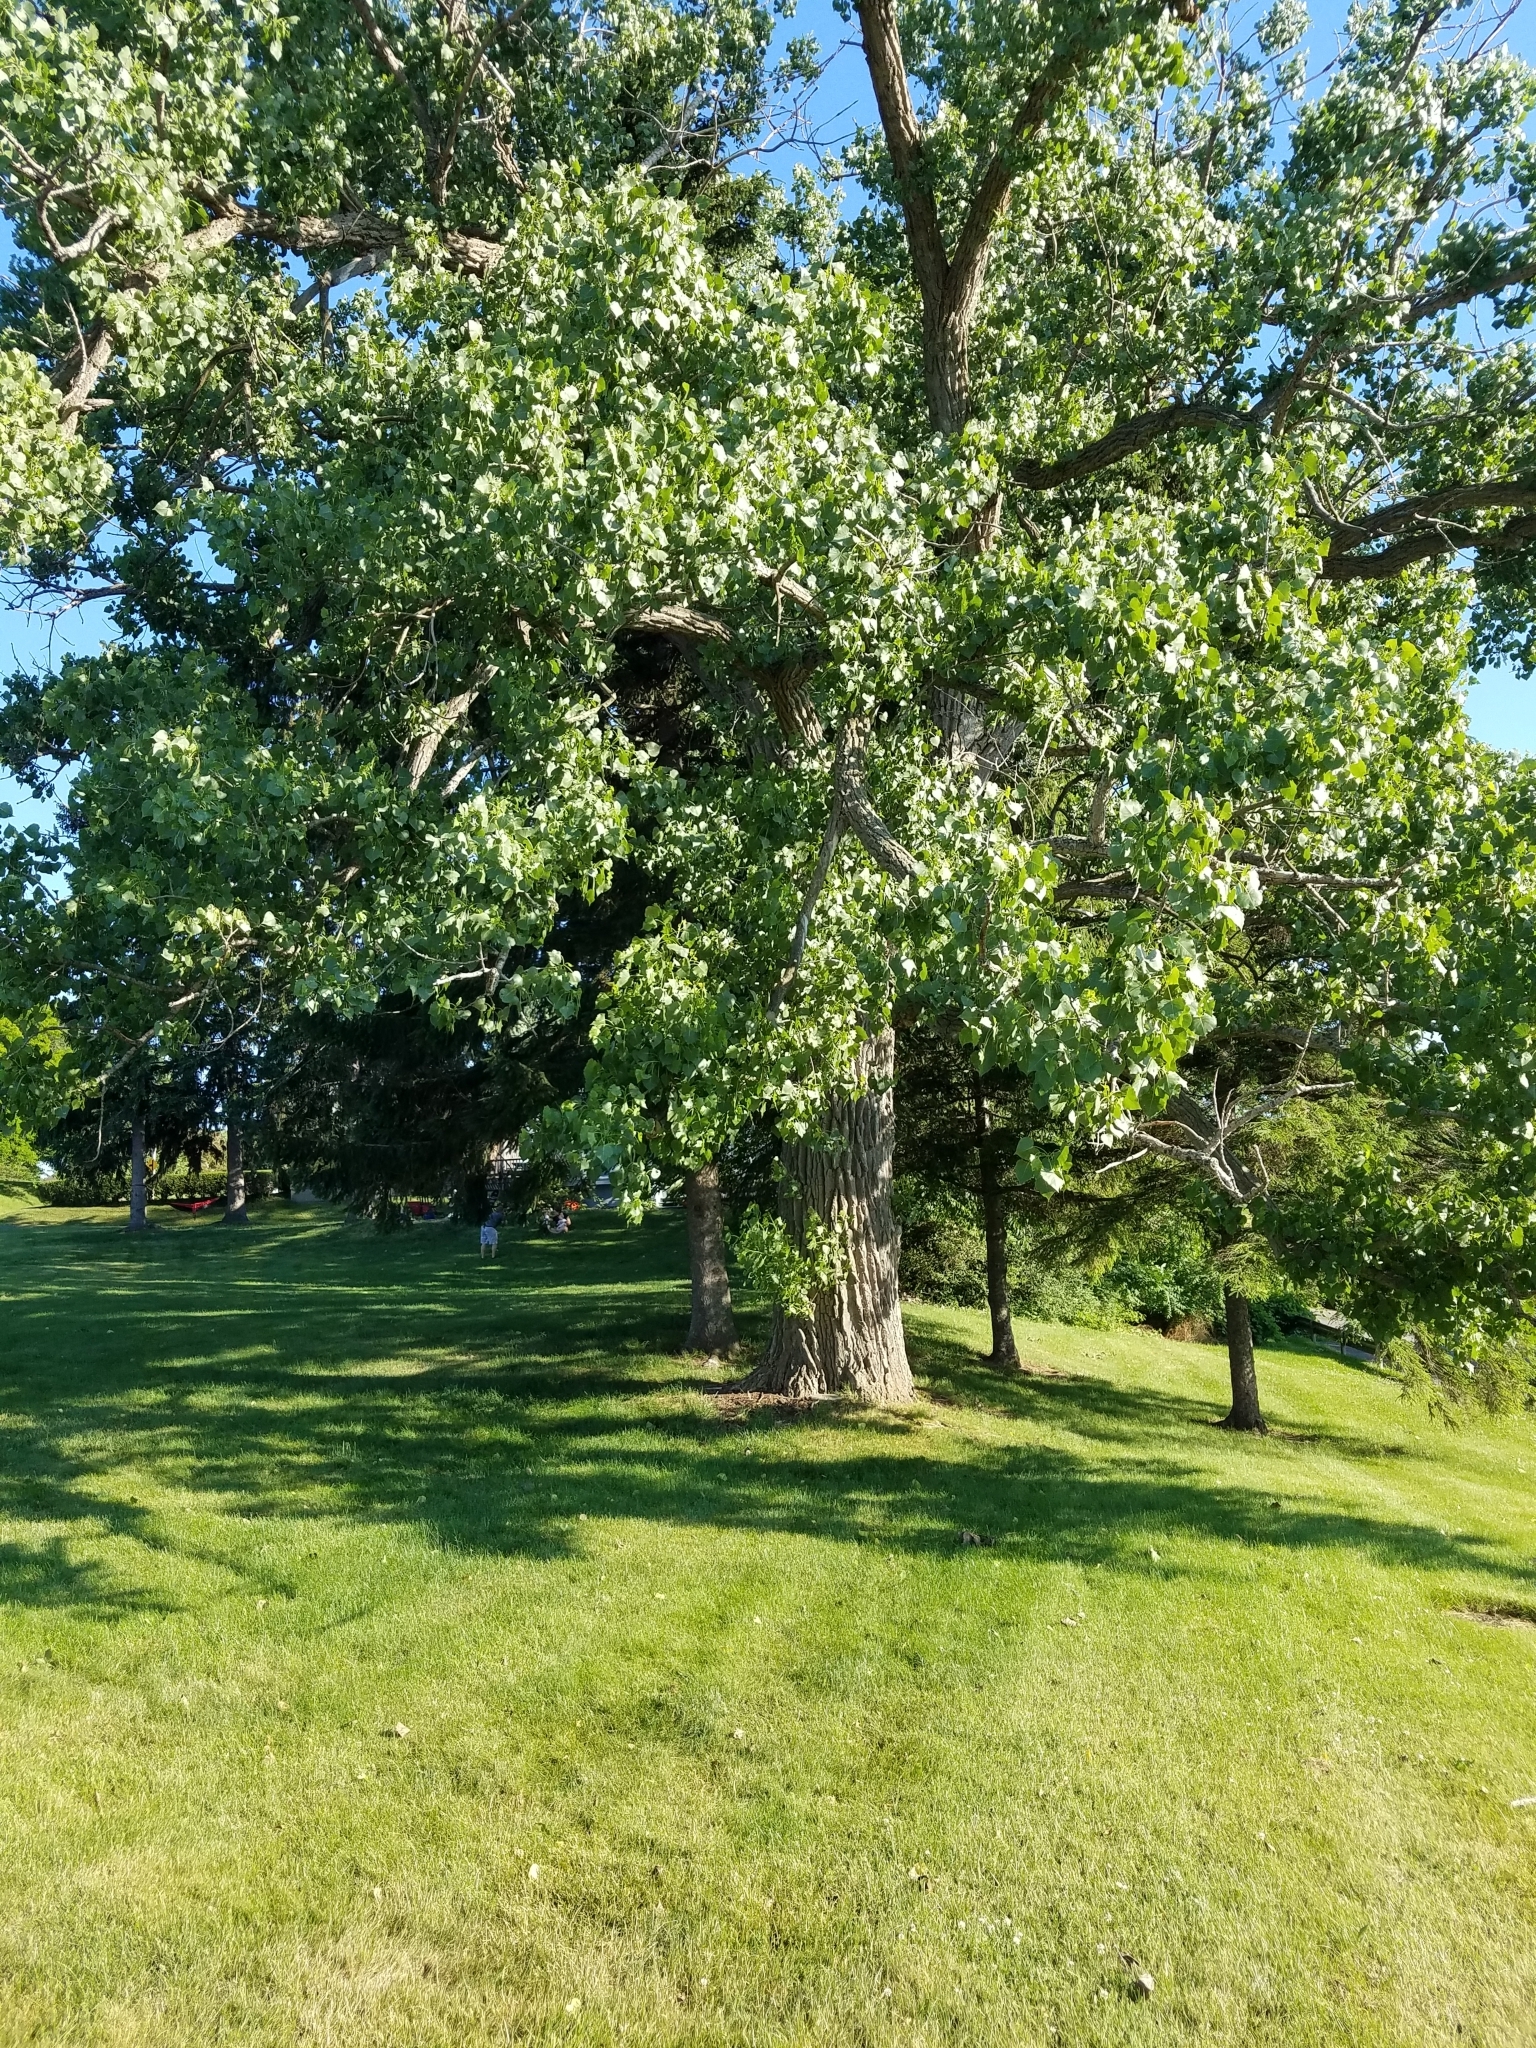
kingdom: Plantae
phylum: Tracheophyta
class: Magnoliopsida
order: Malpighiales
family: Salicaceae
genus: Populus
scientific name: Populus deltoides
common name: Eastern cottonwood
